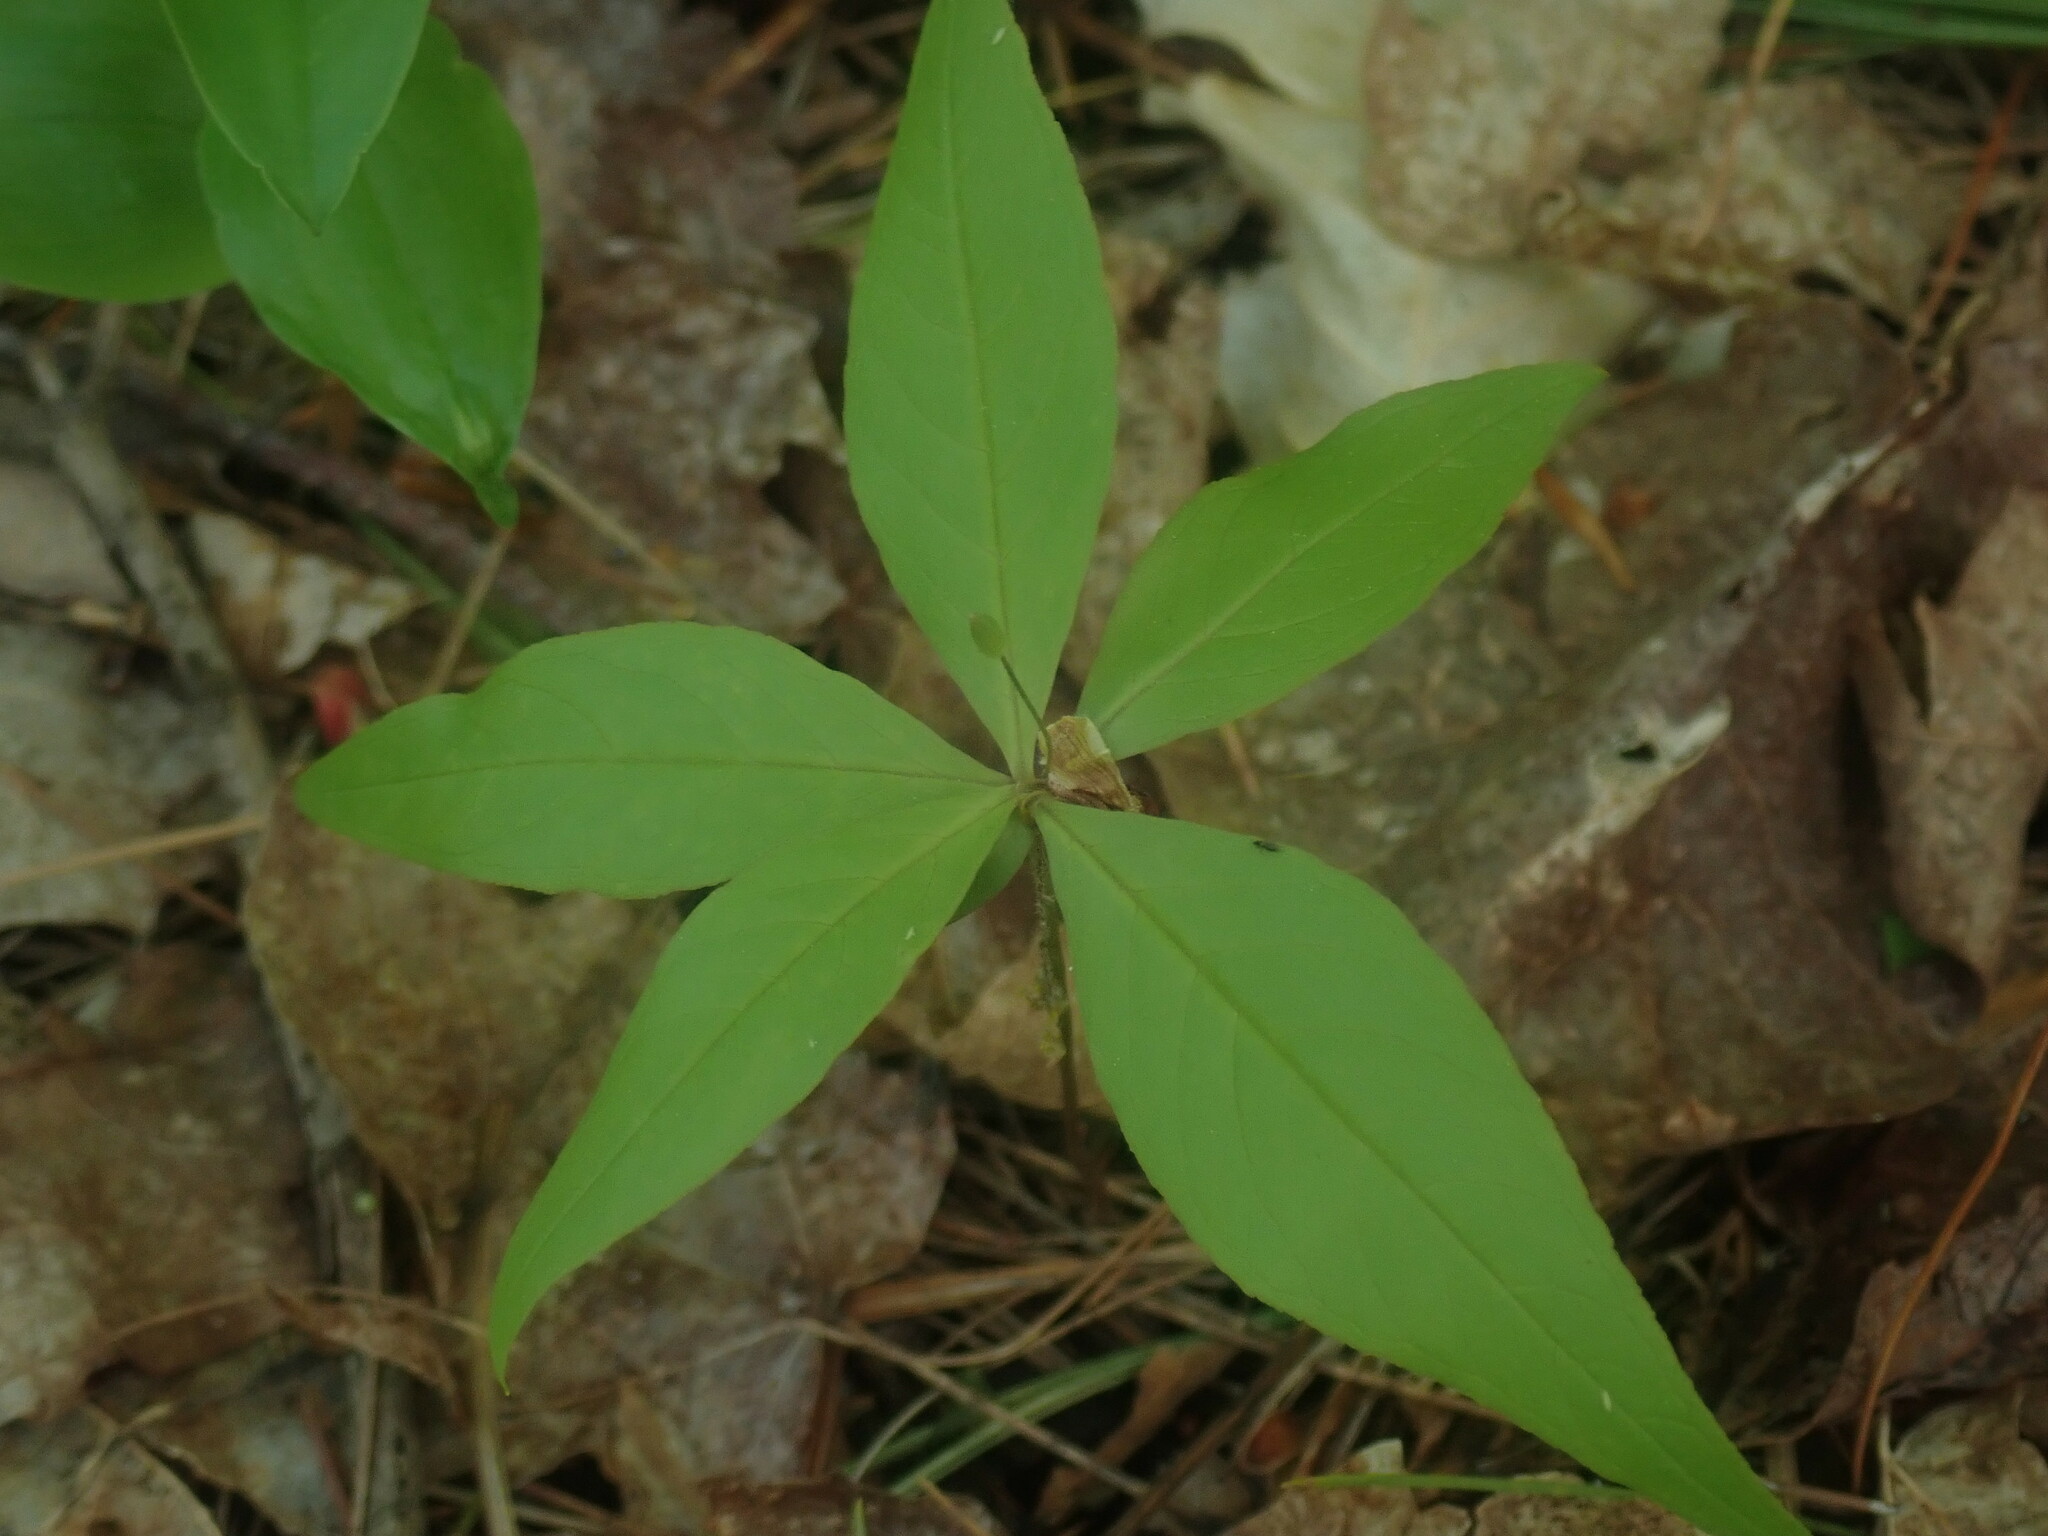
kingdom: Plantae
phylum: Tracheophyta
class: Magnoliopsida
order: Ericales
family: Primulaceae
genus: Lysimachia
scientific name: Lysimachia borealis
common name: American starflower
